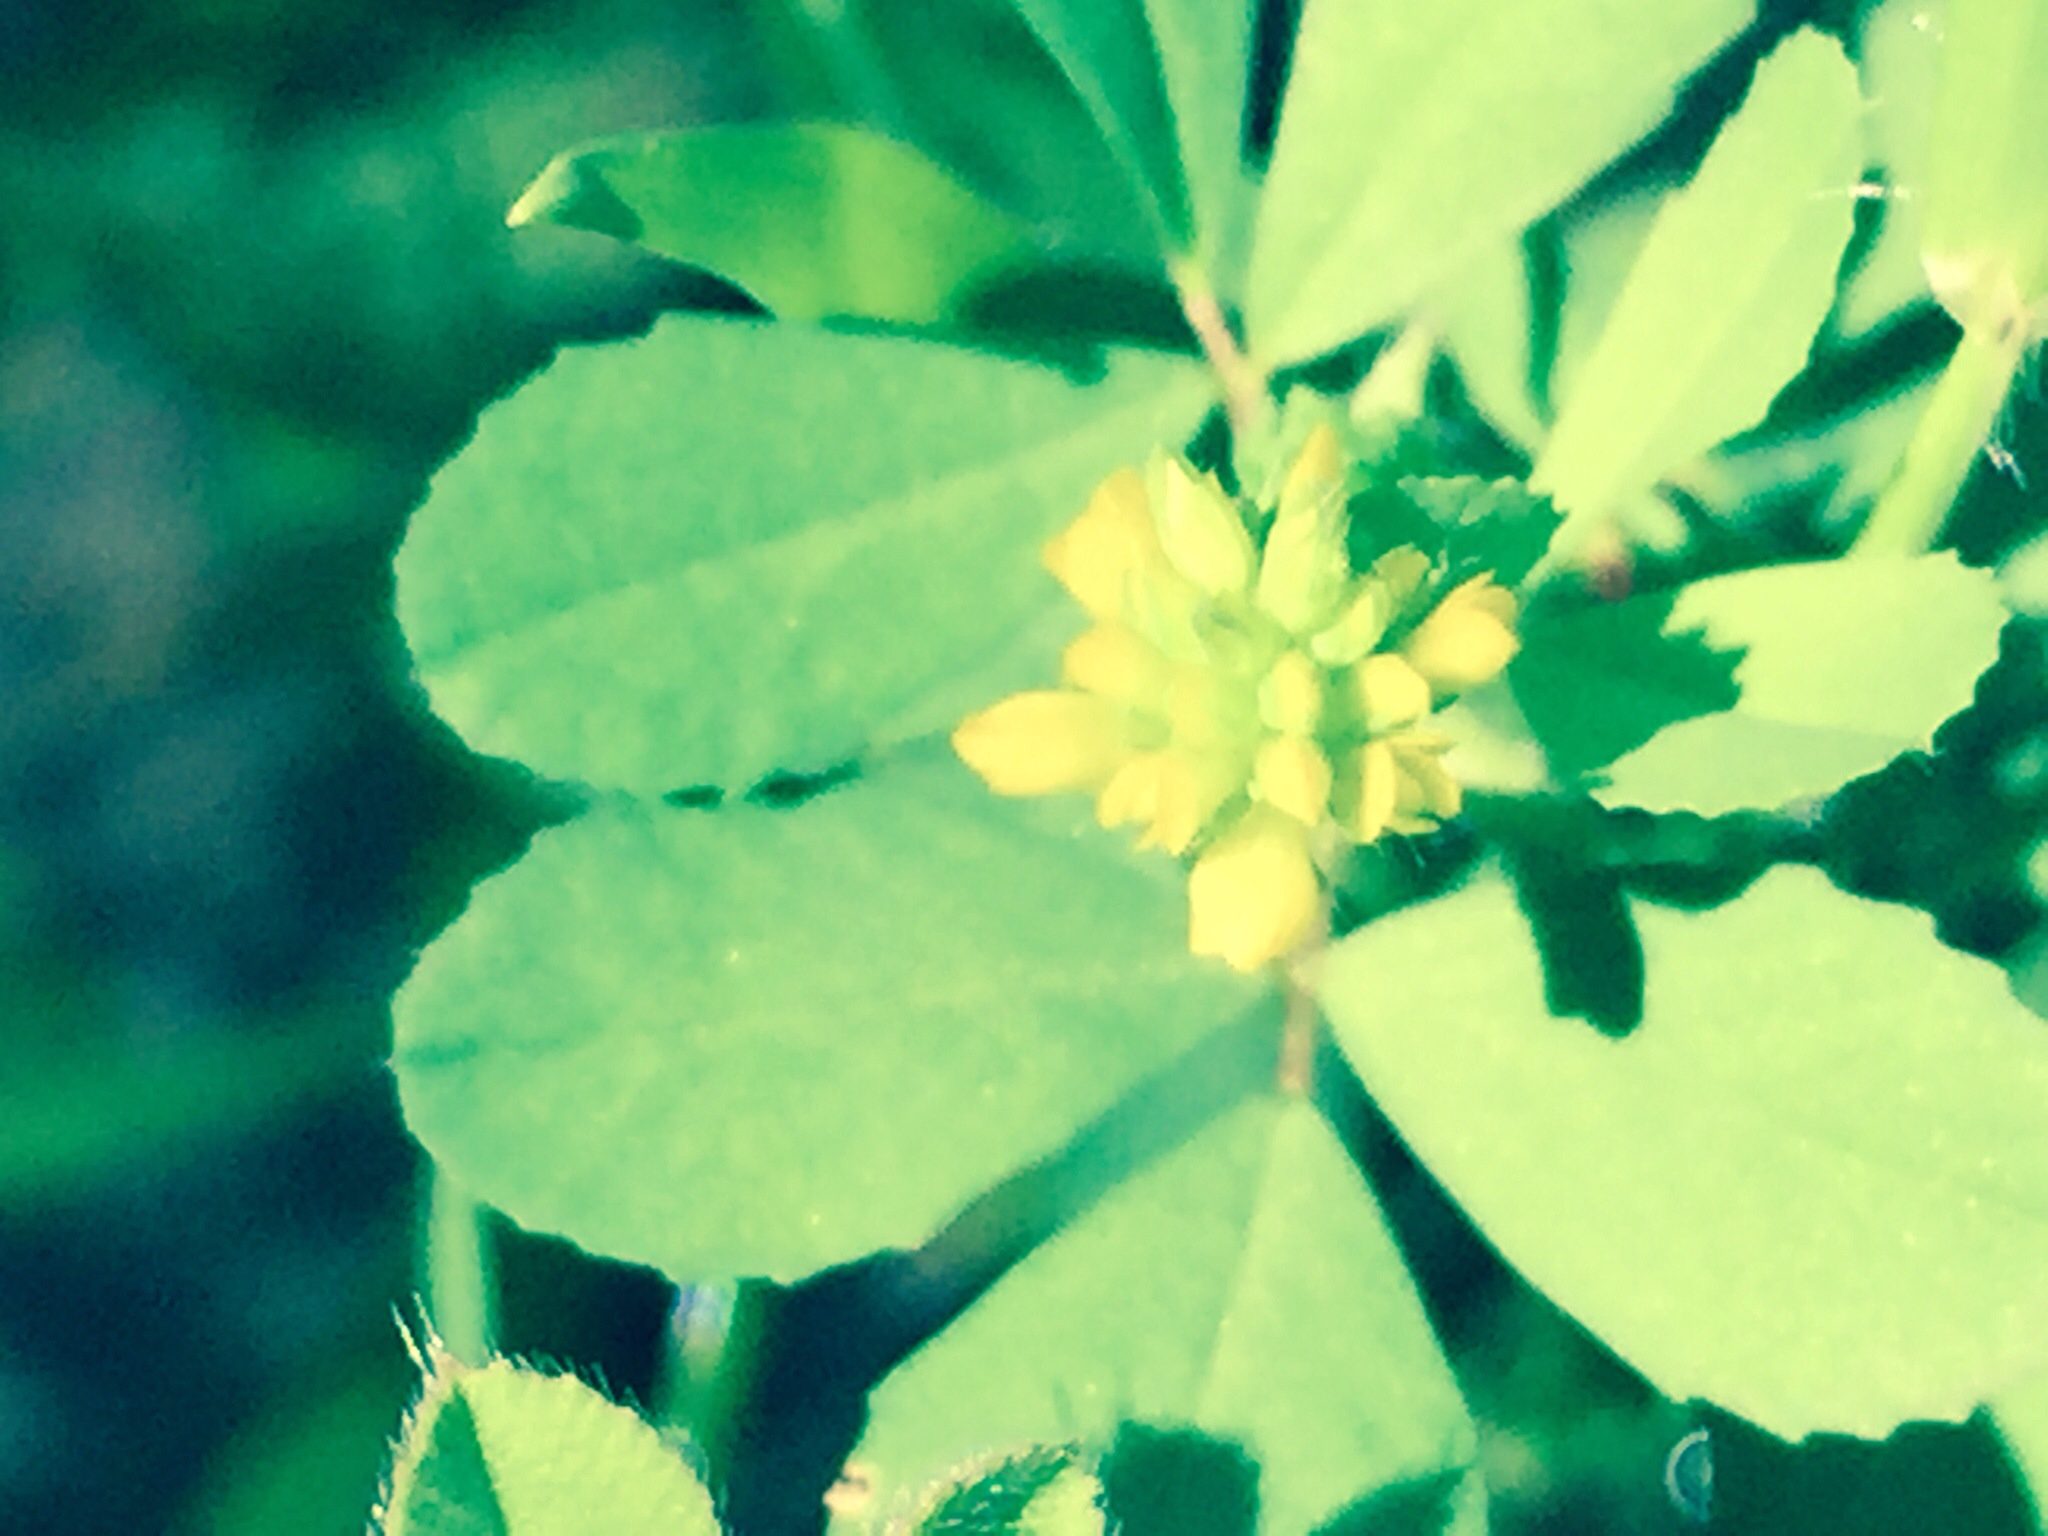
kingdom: Plantae
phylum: Tracheophyta
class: Magnoliopsida
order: Fabales
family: Fabaceae
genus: Trifolium
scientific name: Trifolium dubium
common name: Suckling clover
